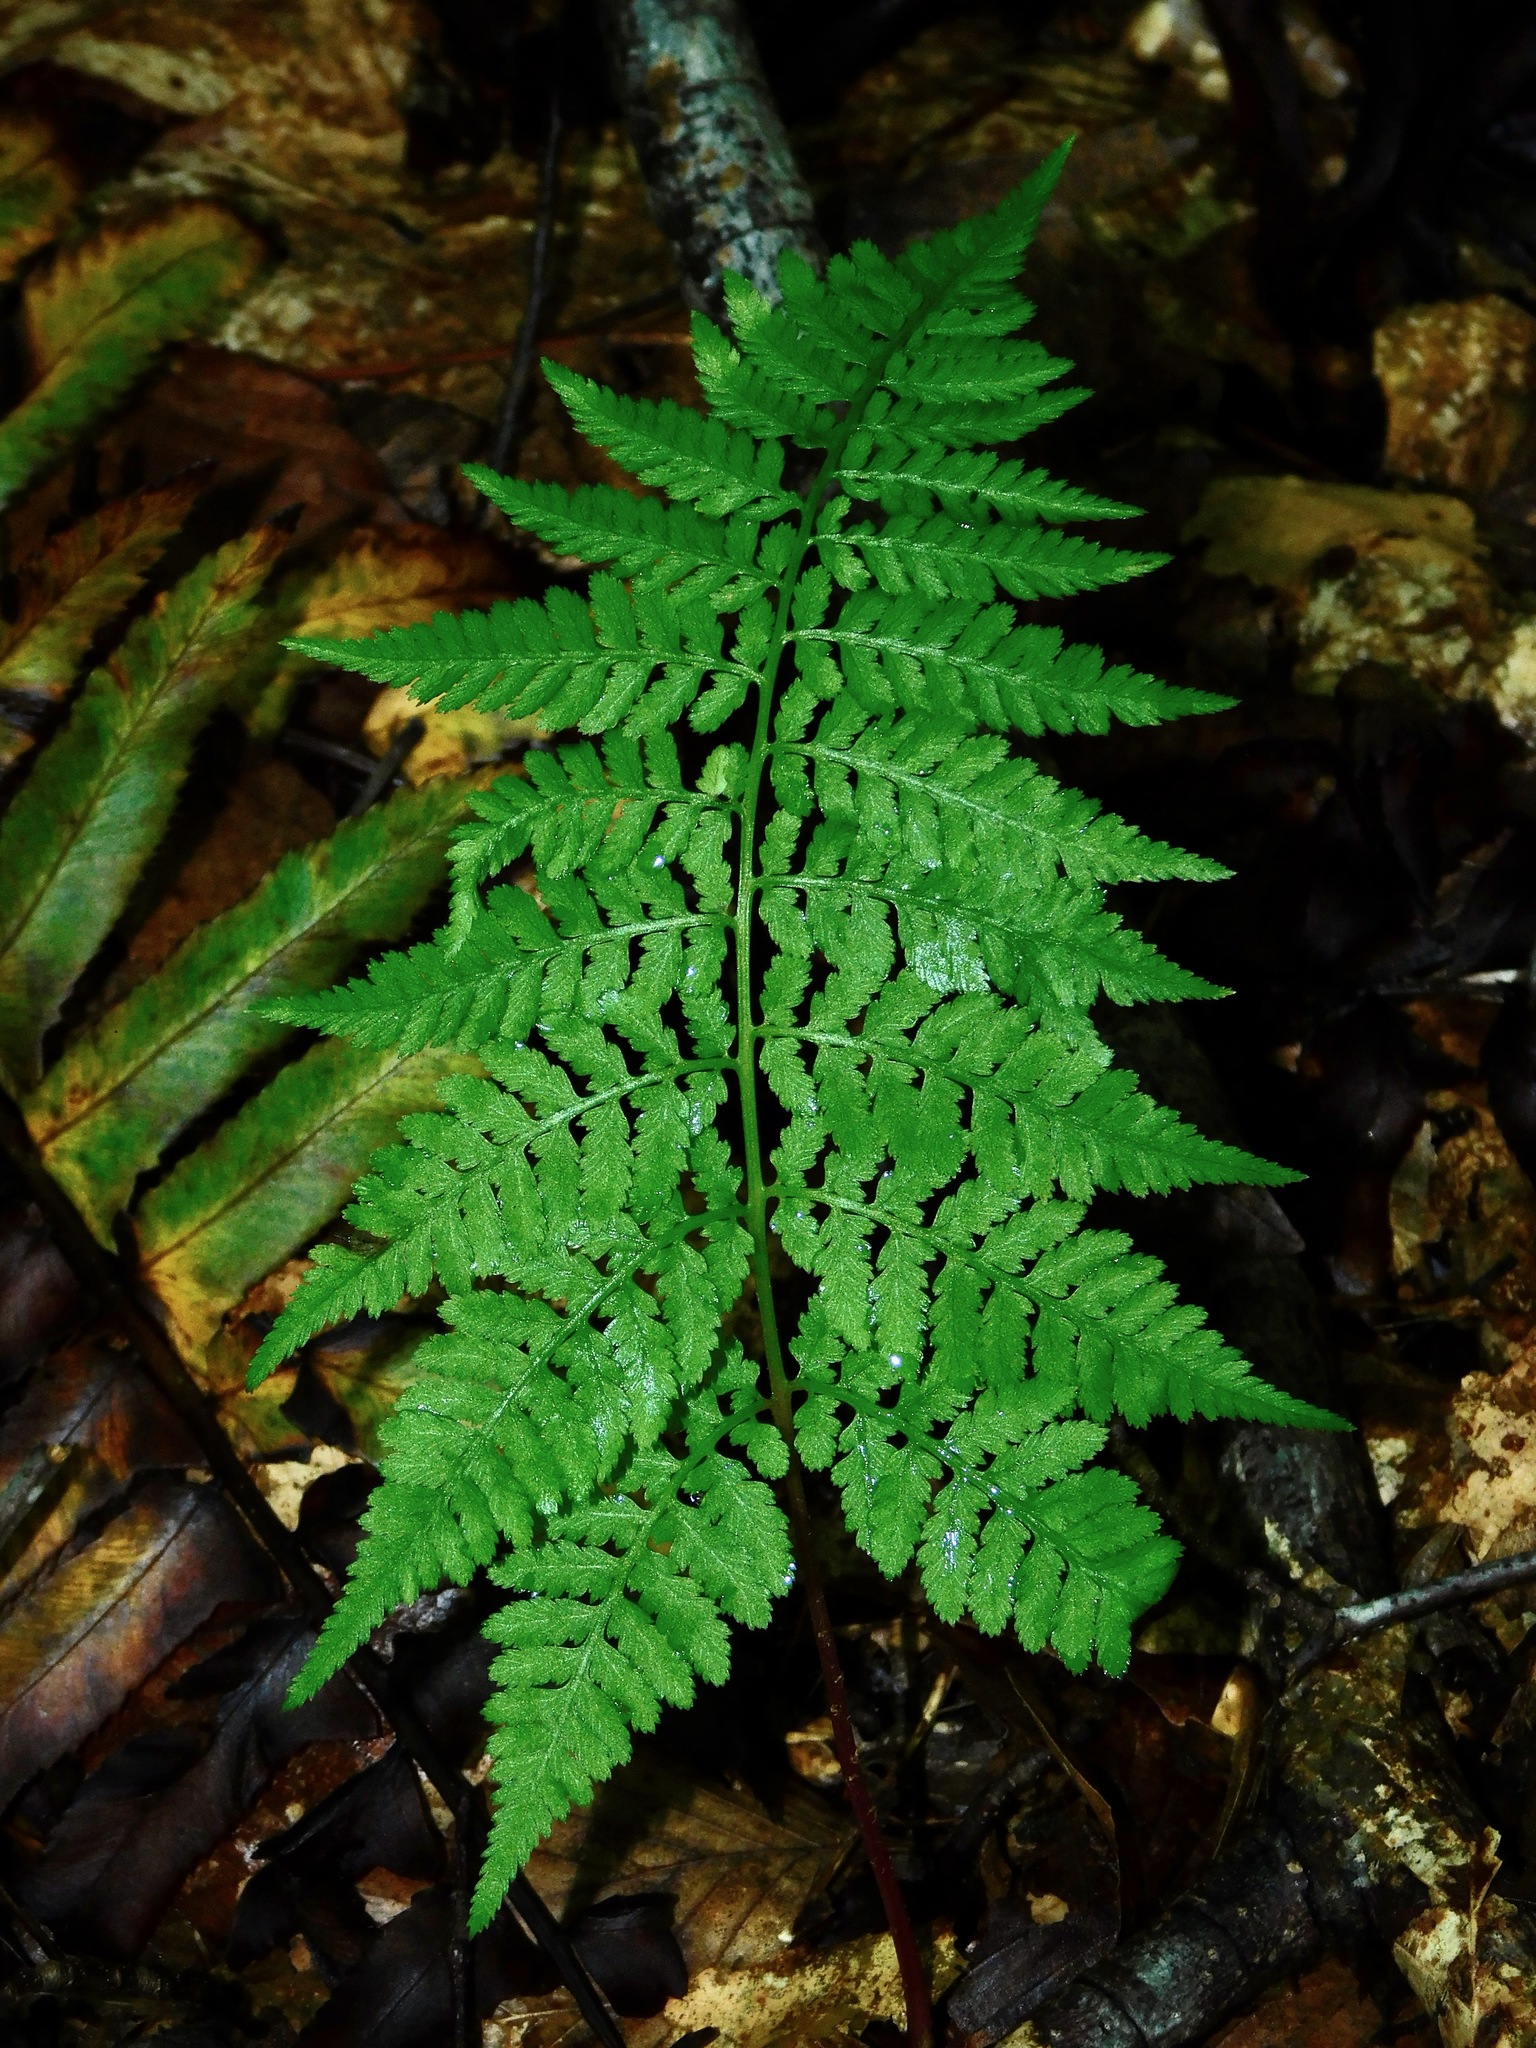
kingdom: Plantae
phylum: Tracheophyta
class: Polypodiopsida
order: Polypodiales
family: Athyriaceae
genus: Athyrium
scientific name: Athyrium asplenioides
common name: Southern lady fern
